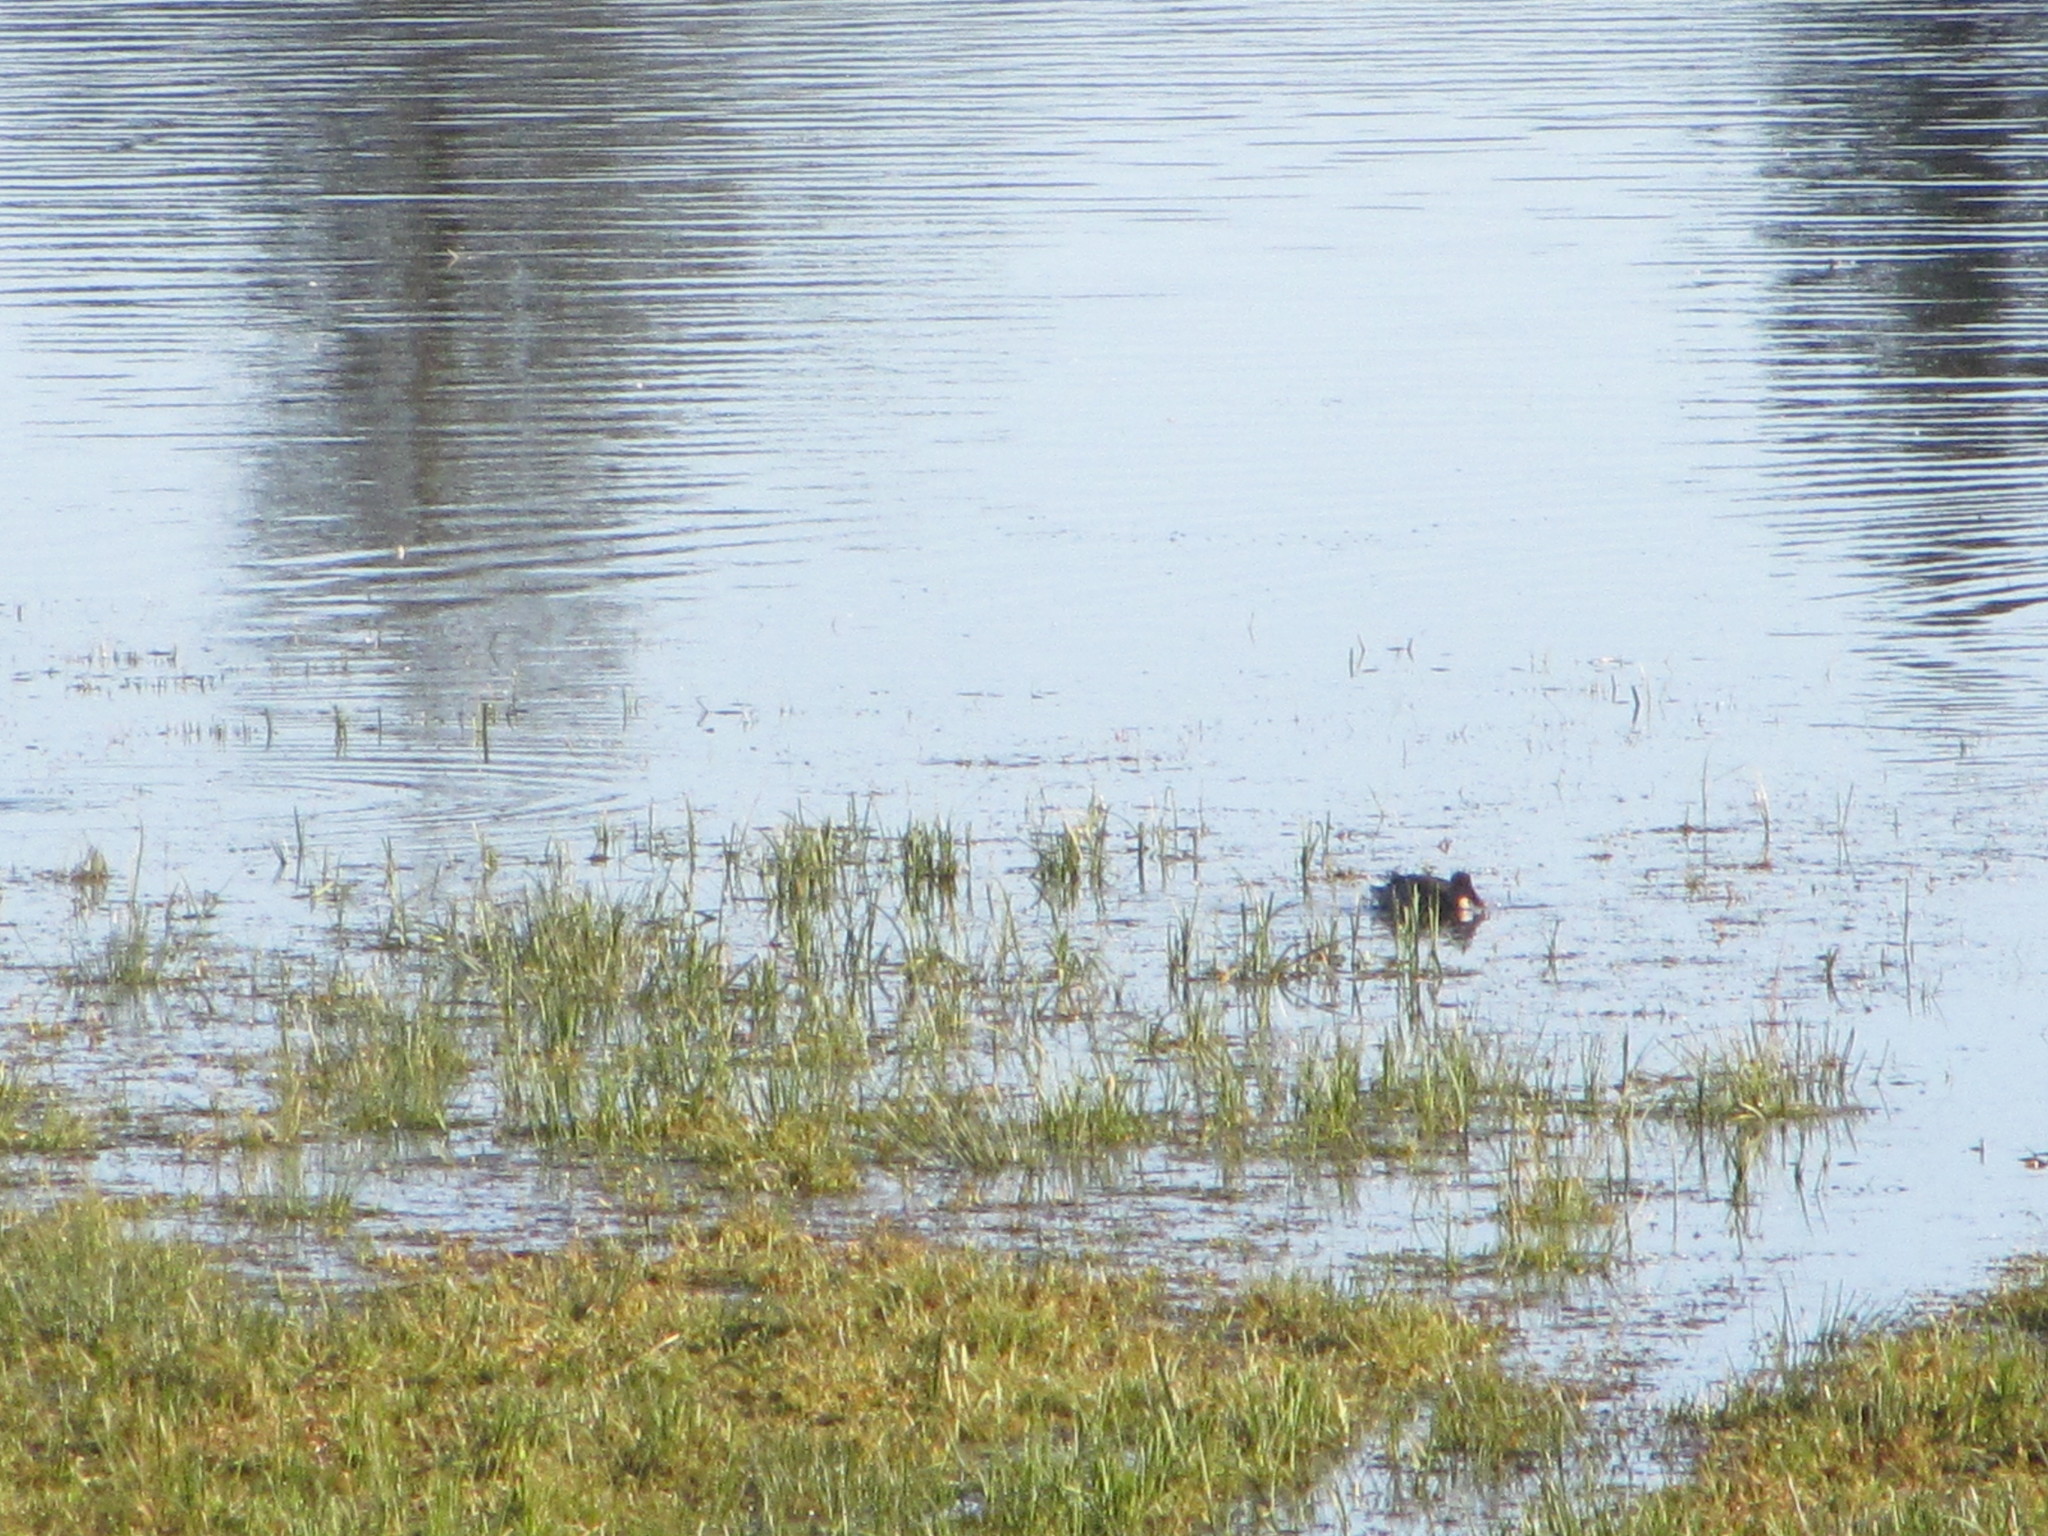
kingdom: Animalia
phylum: Chordata
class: Aves
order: Anseriformes
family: Anatidae
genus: Spatula
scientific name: Spatula
